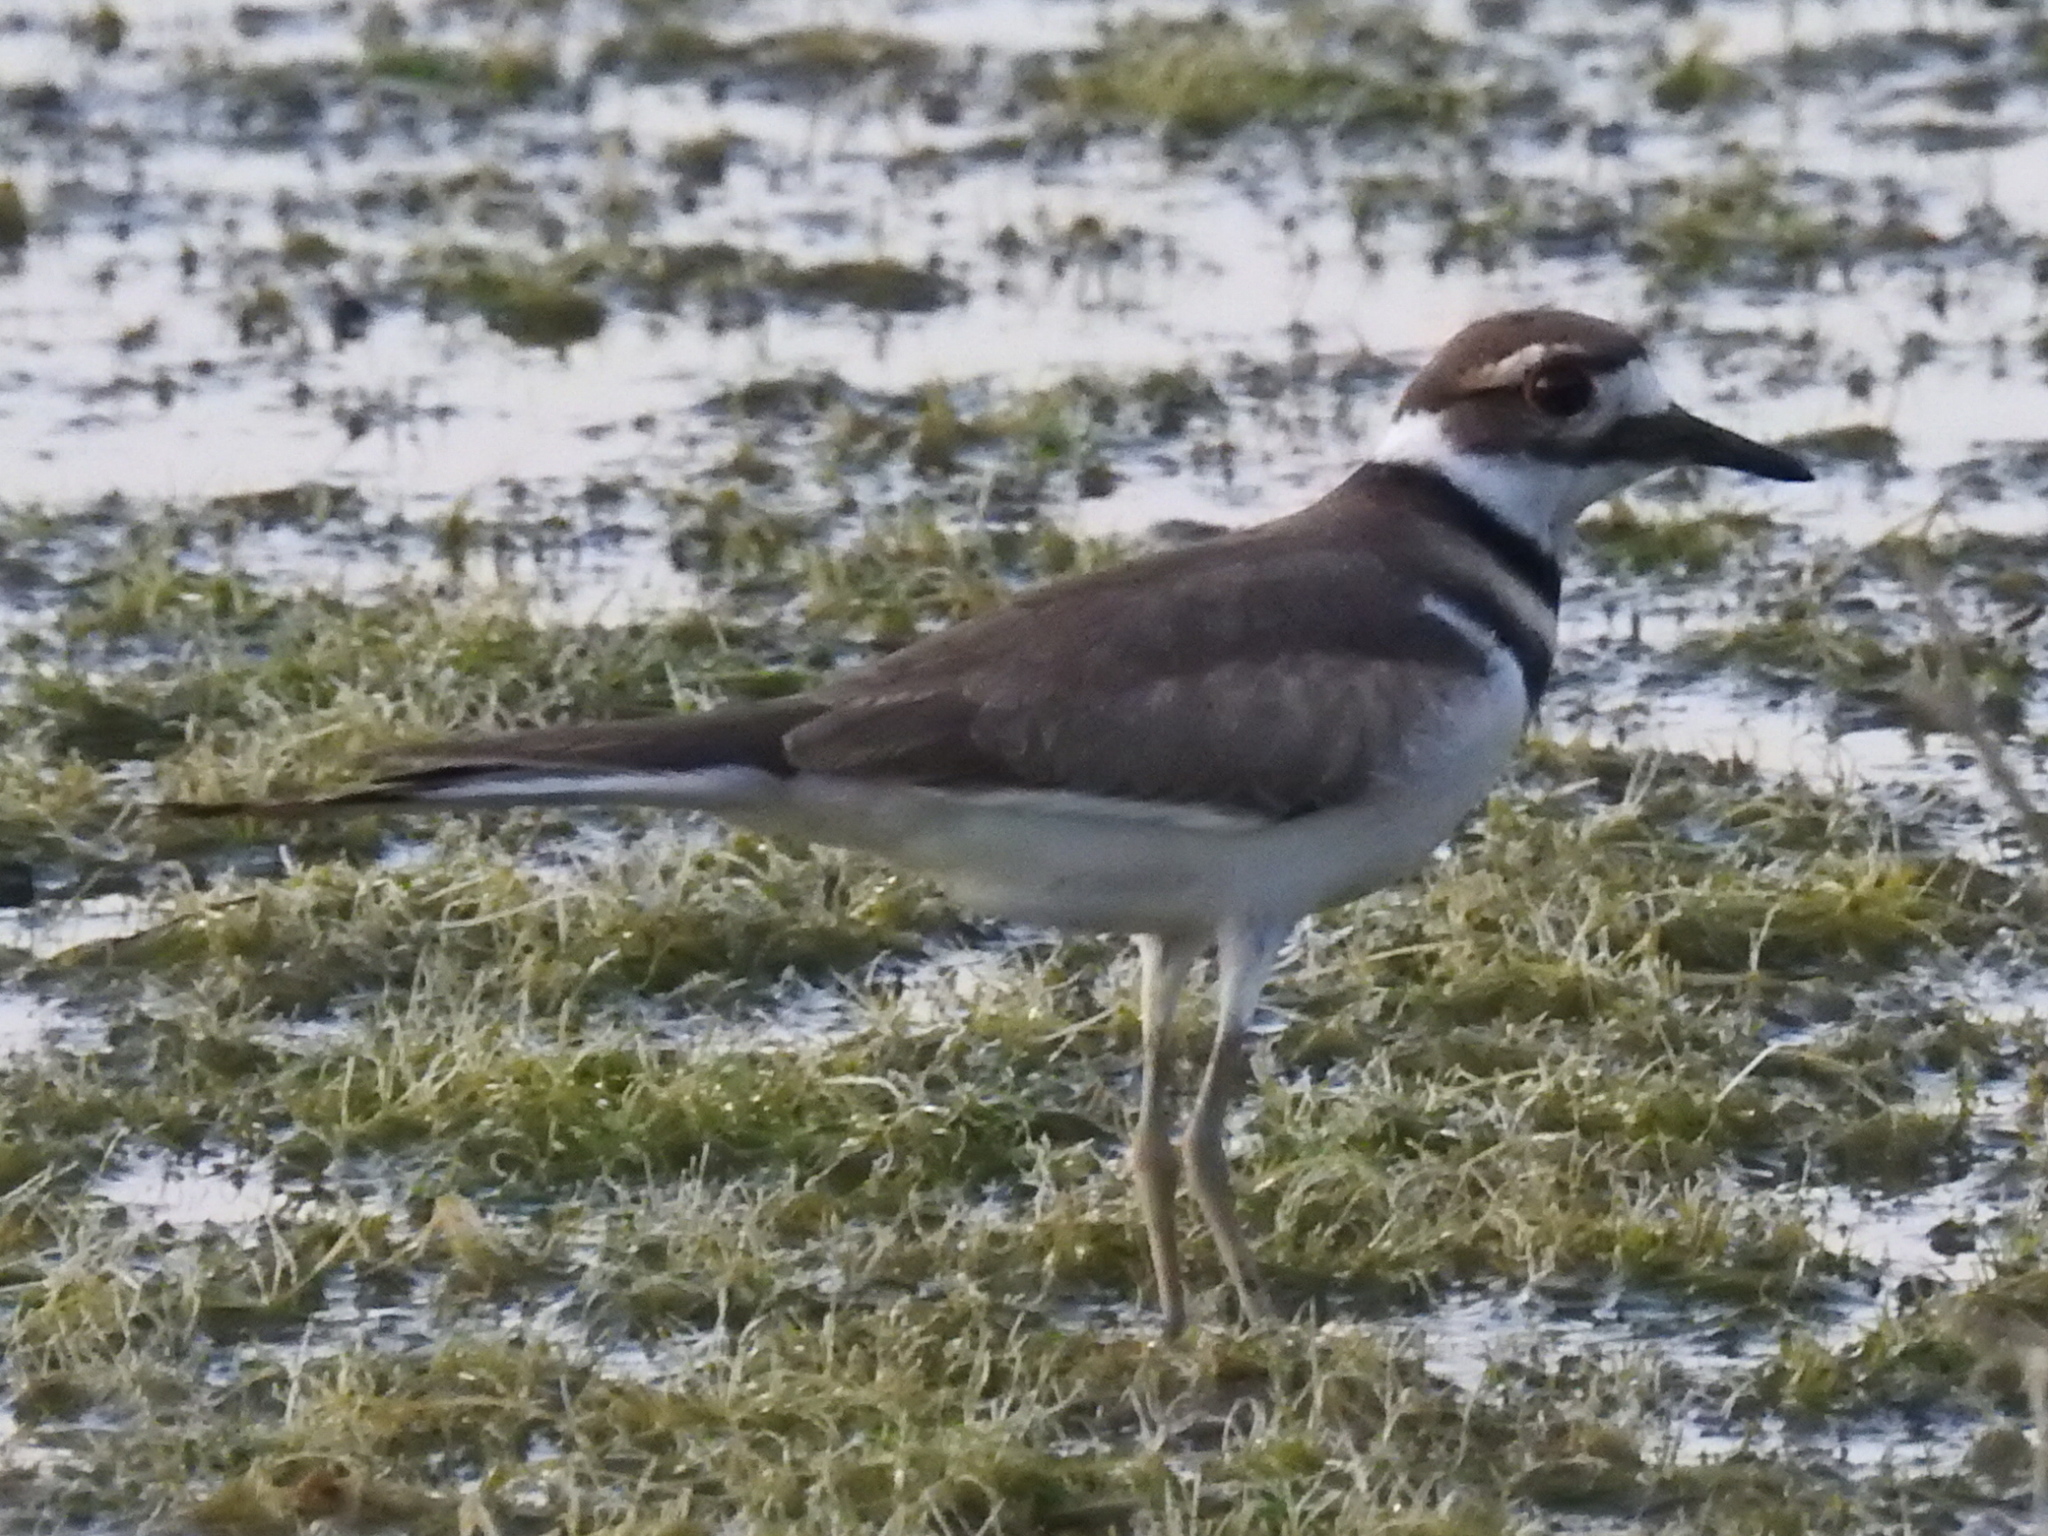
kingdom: Animalia
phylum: Chordata
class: Aves
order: Charadriiformes
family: Charadriidae
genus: Charadrius
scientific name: Charadrius vociferus
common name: Killdeer
